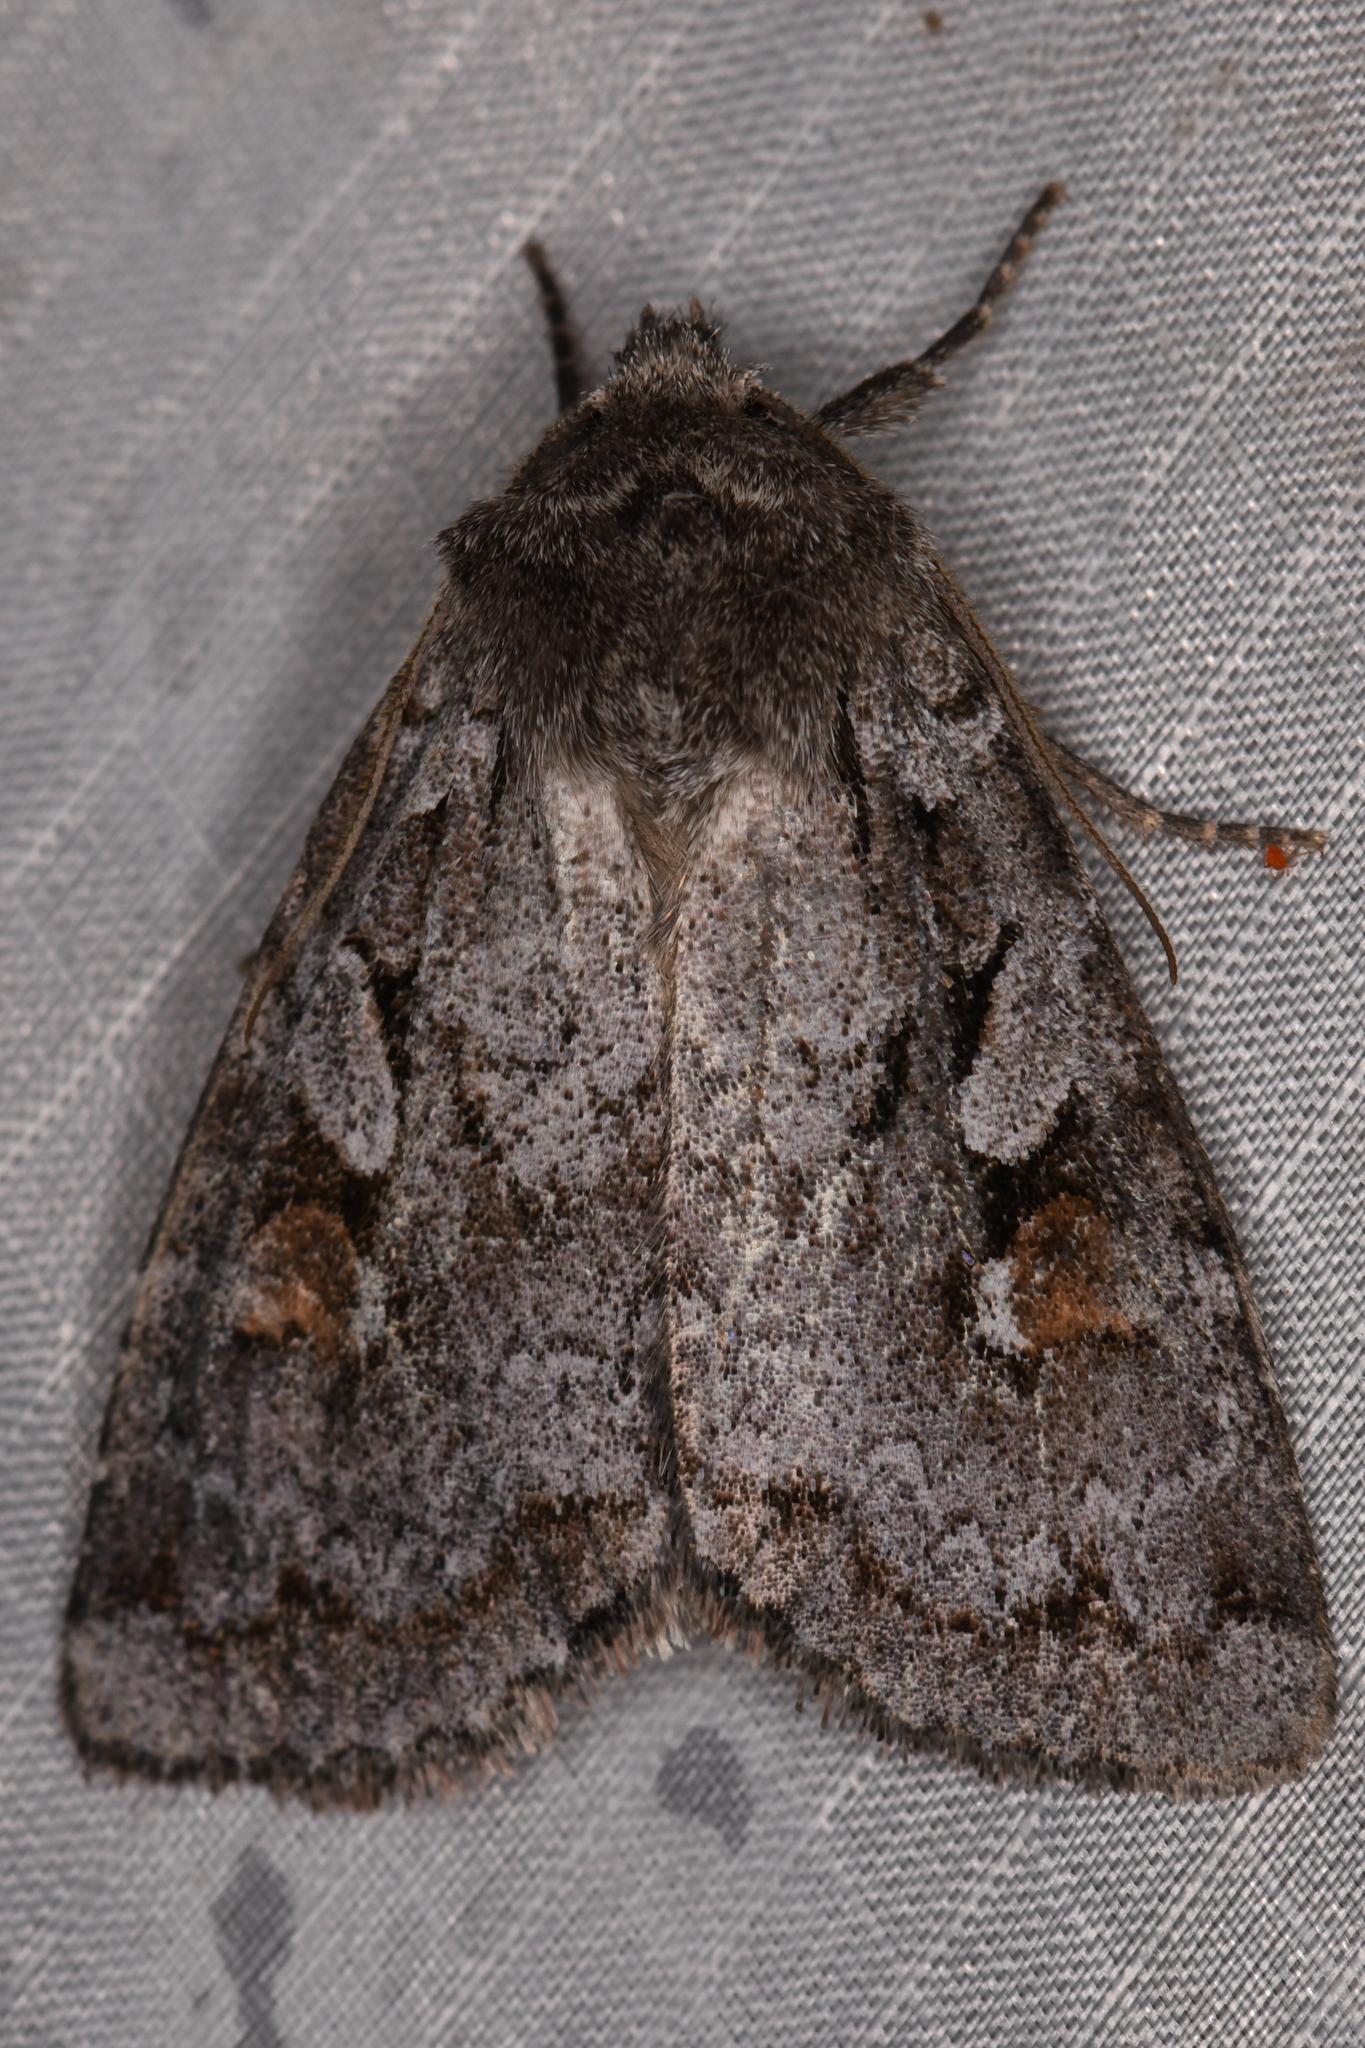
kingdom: Animalia
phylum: Arthropoda
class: Insecta
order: Lepidoptera
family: Noctuidae
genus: Xestia
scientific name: Xestia imperita
